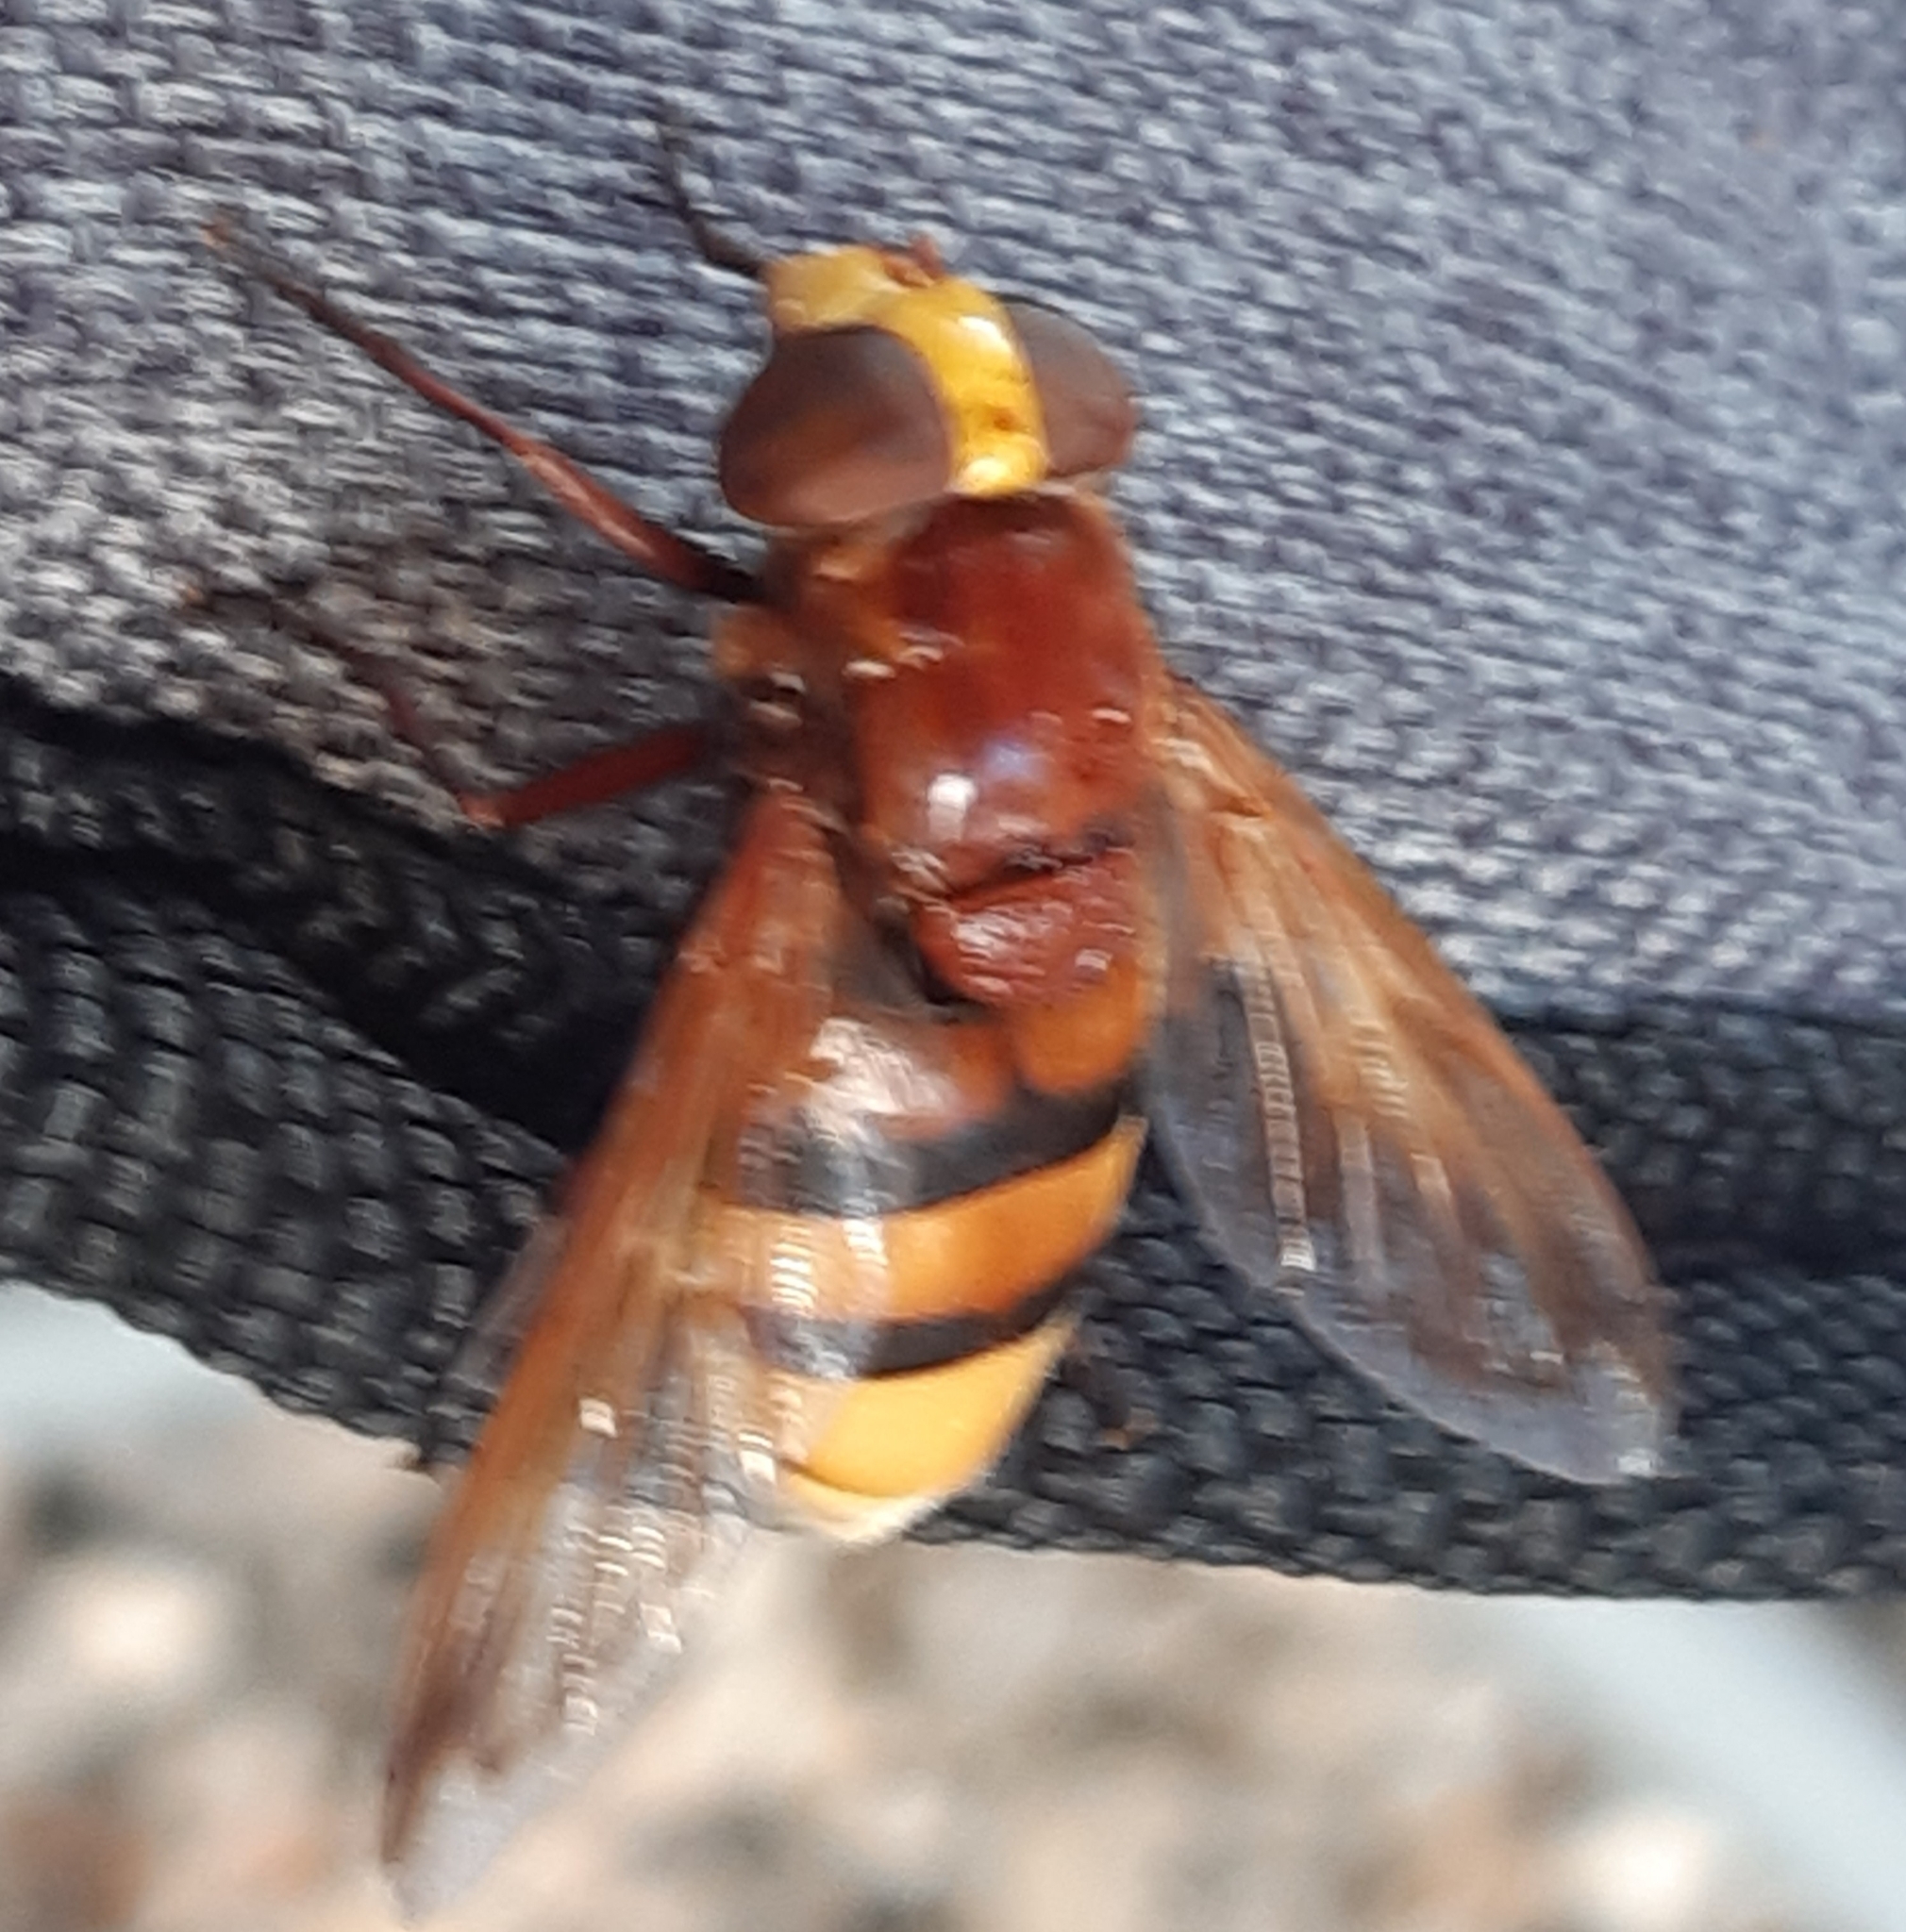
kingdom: Animalia
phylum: Arthropoda
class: Insecta
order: Diptera
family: Syrphidae
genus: Volucella
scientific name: Volucella zonaria
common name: Hornet hoverfly
